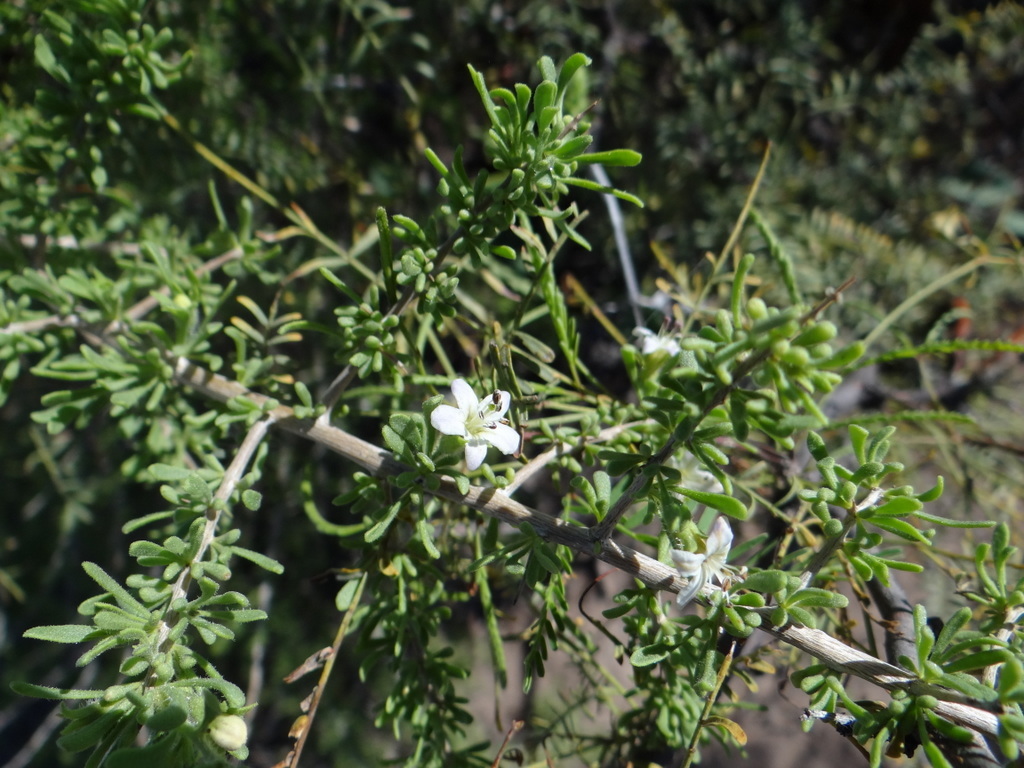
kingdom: Plantae
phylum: Tracheophyta
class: Magnoliopsida
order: Solanales
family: Solanaceae
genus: Lycium
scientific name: Lycium chilense
